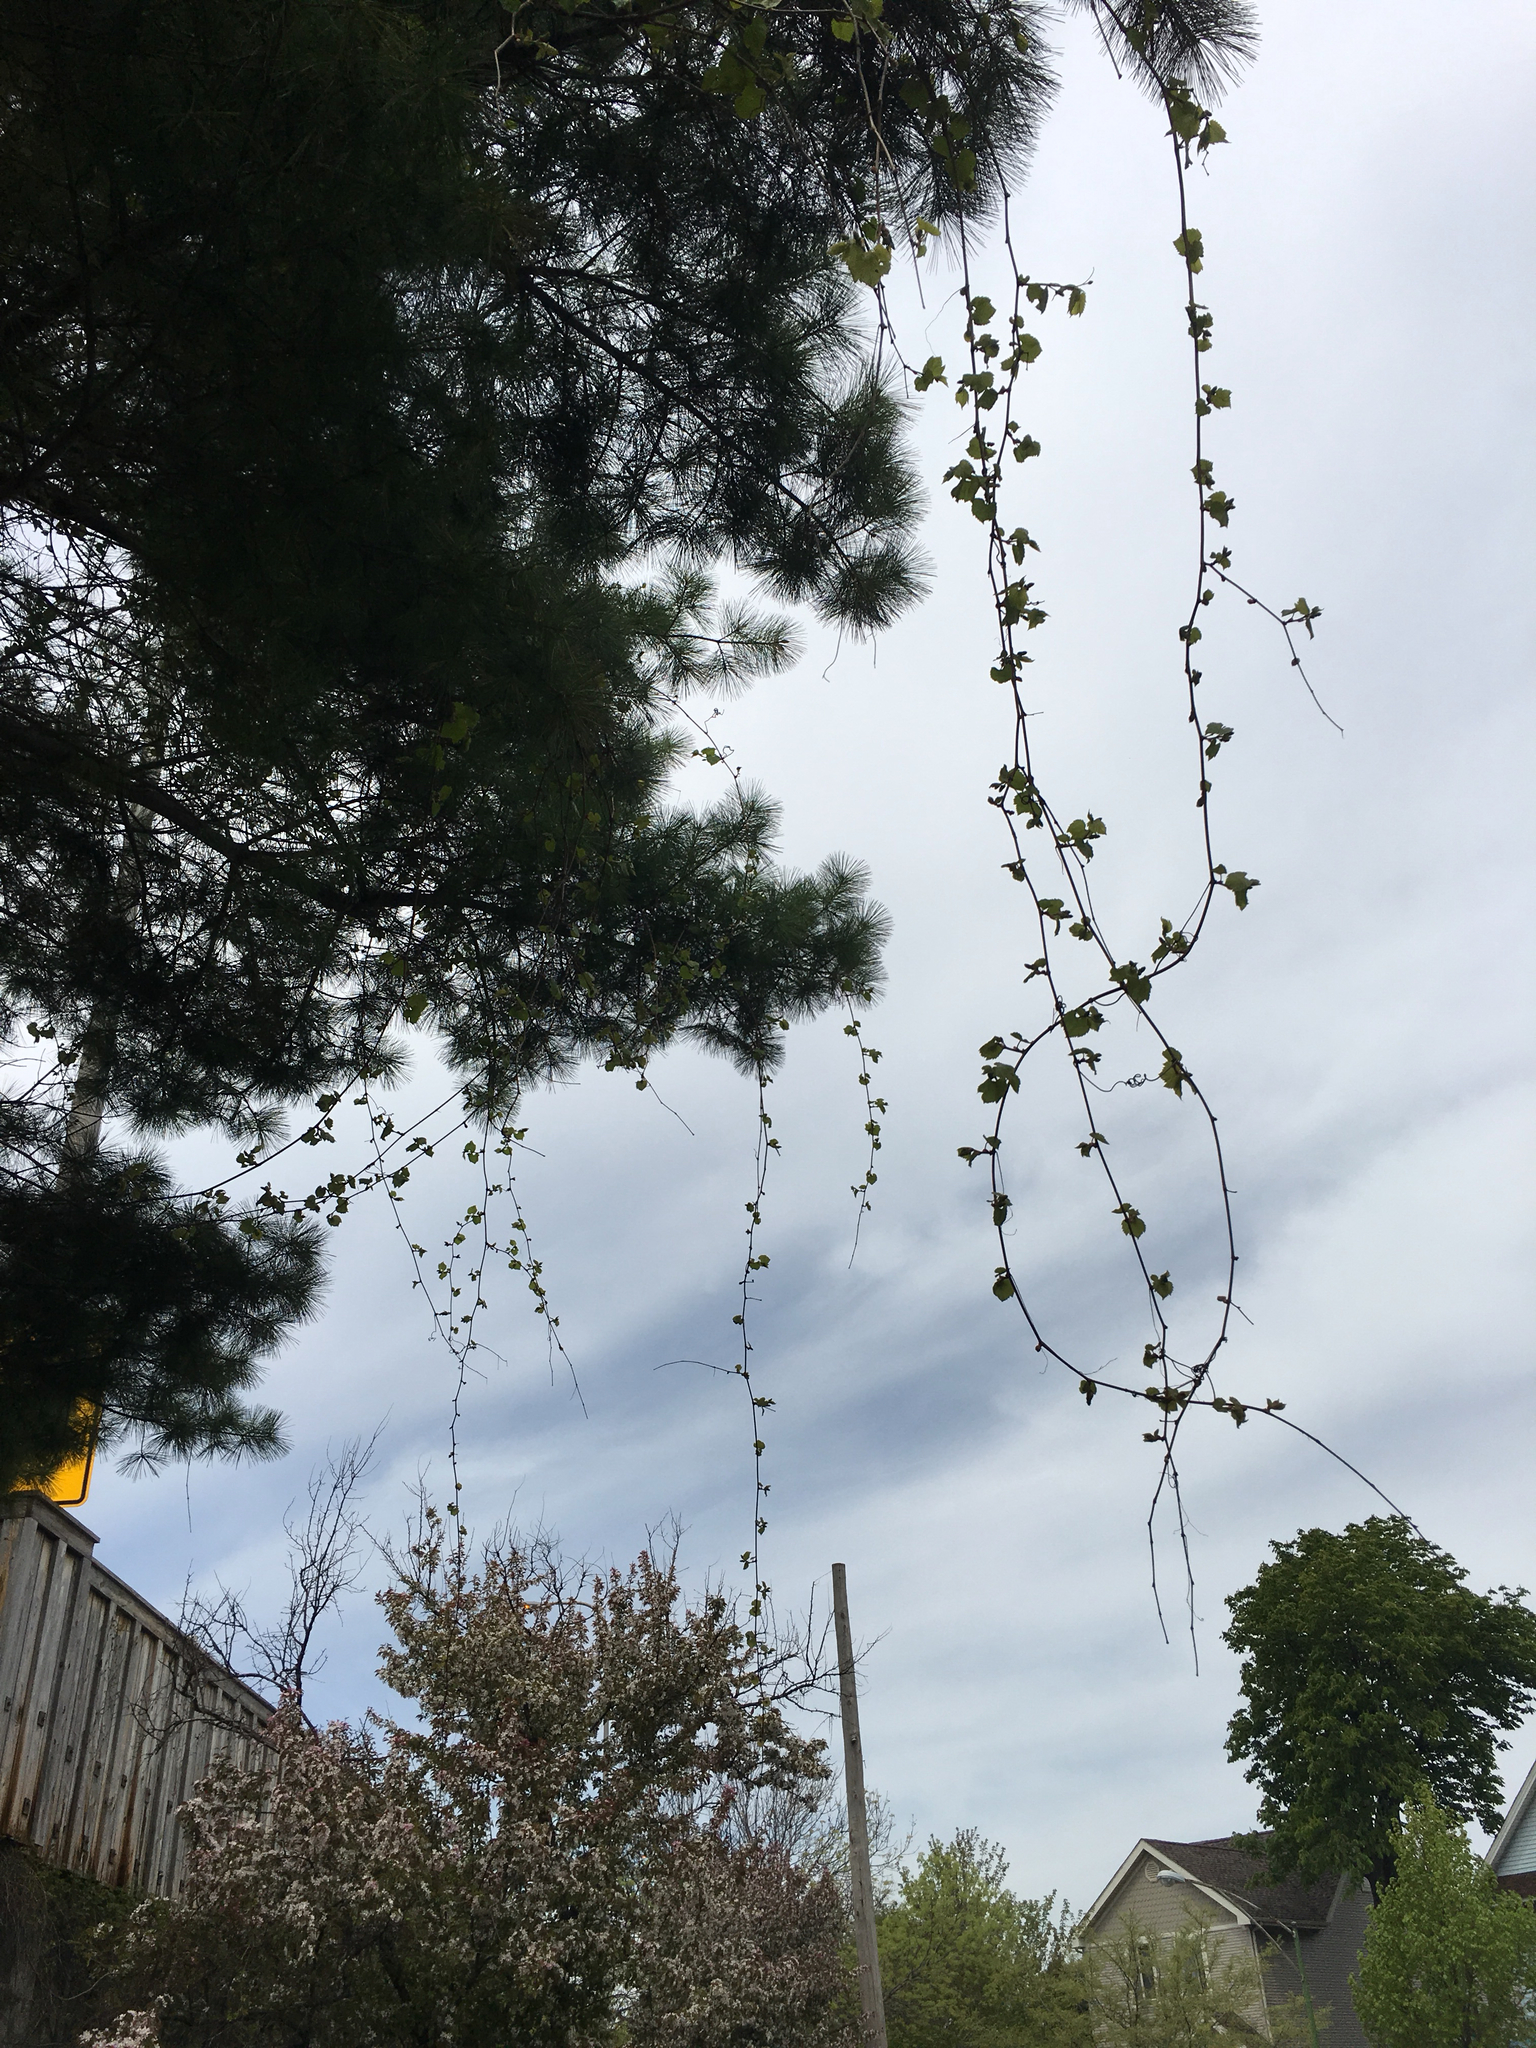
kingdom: Plantae
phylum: Tracheophyta
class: Magnoliopsida
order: Vitales
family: Vitaceae
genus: Vitis
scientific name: Vitis riparia
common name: Frost grape
